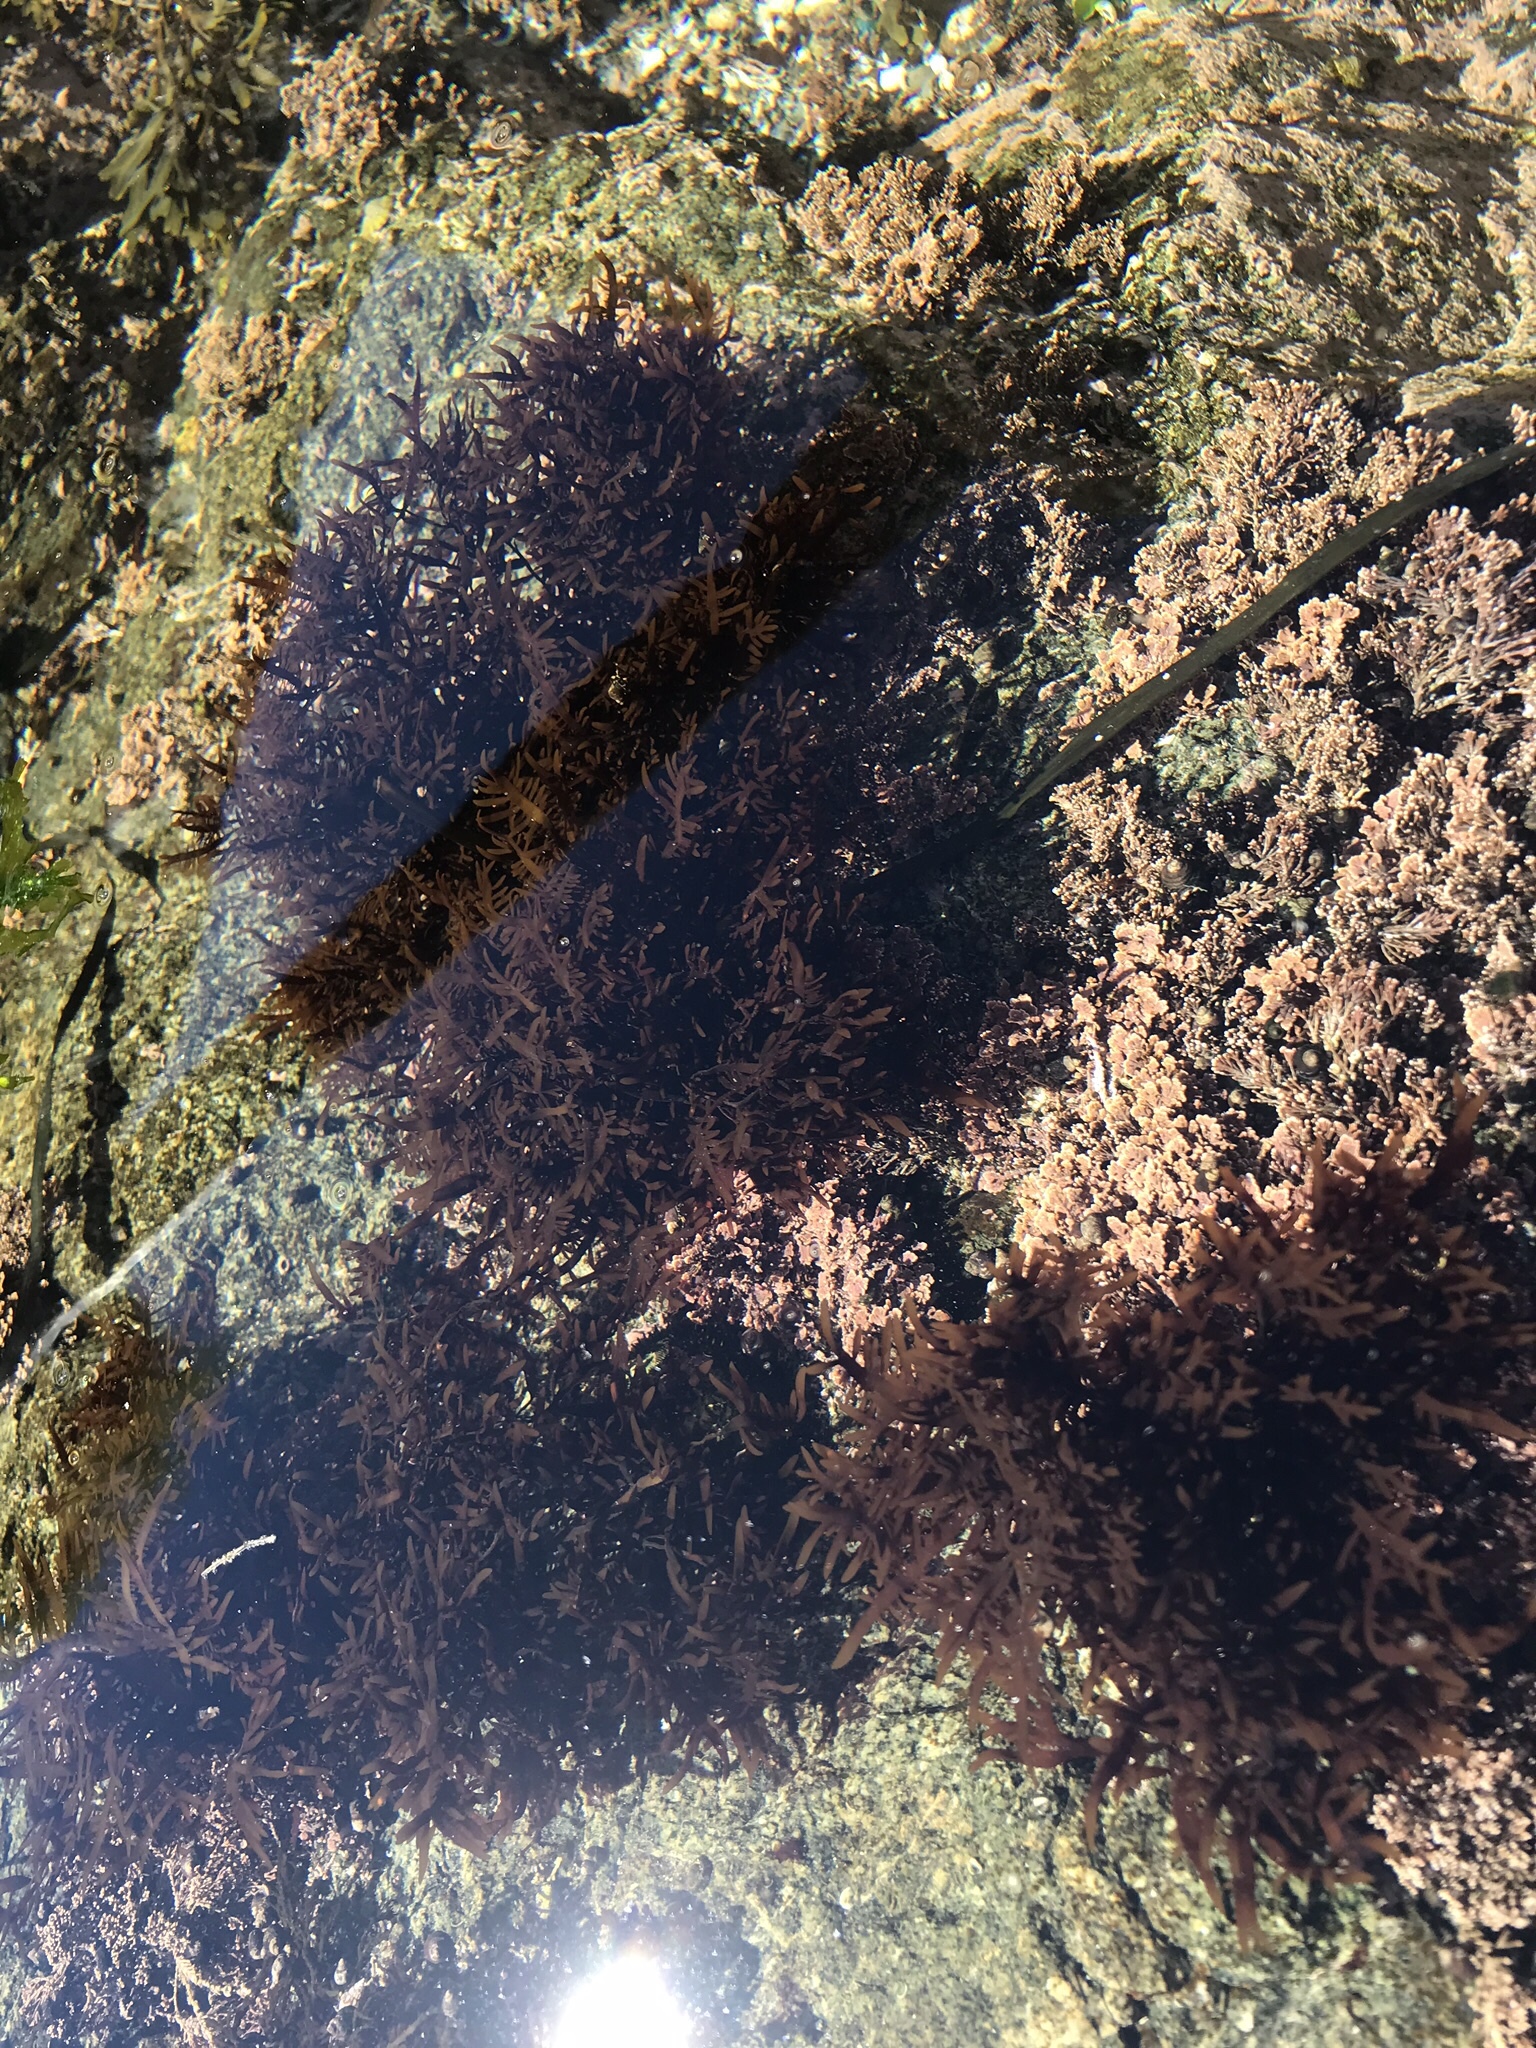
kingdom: Plantae
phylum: Rhodophyta
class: Florideophyceae
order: Halymeniales
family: Halymeniaceae
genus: Grateloupia
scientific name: Grateloupia Prionitis lanceolata
